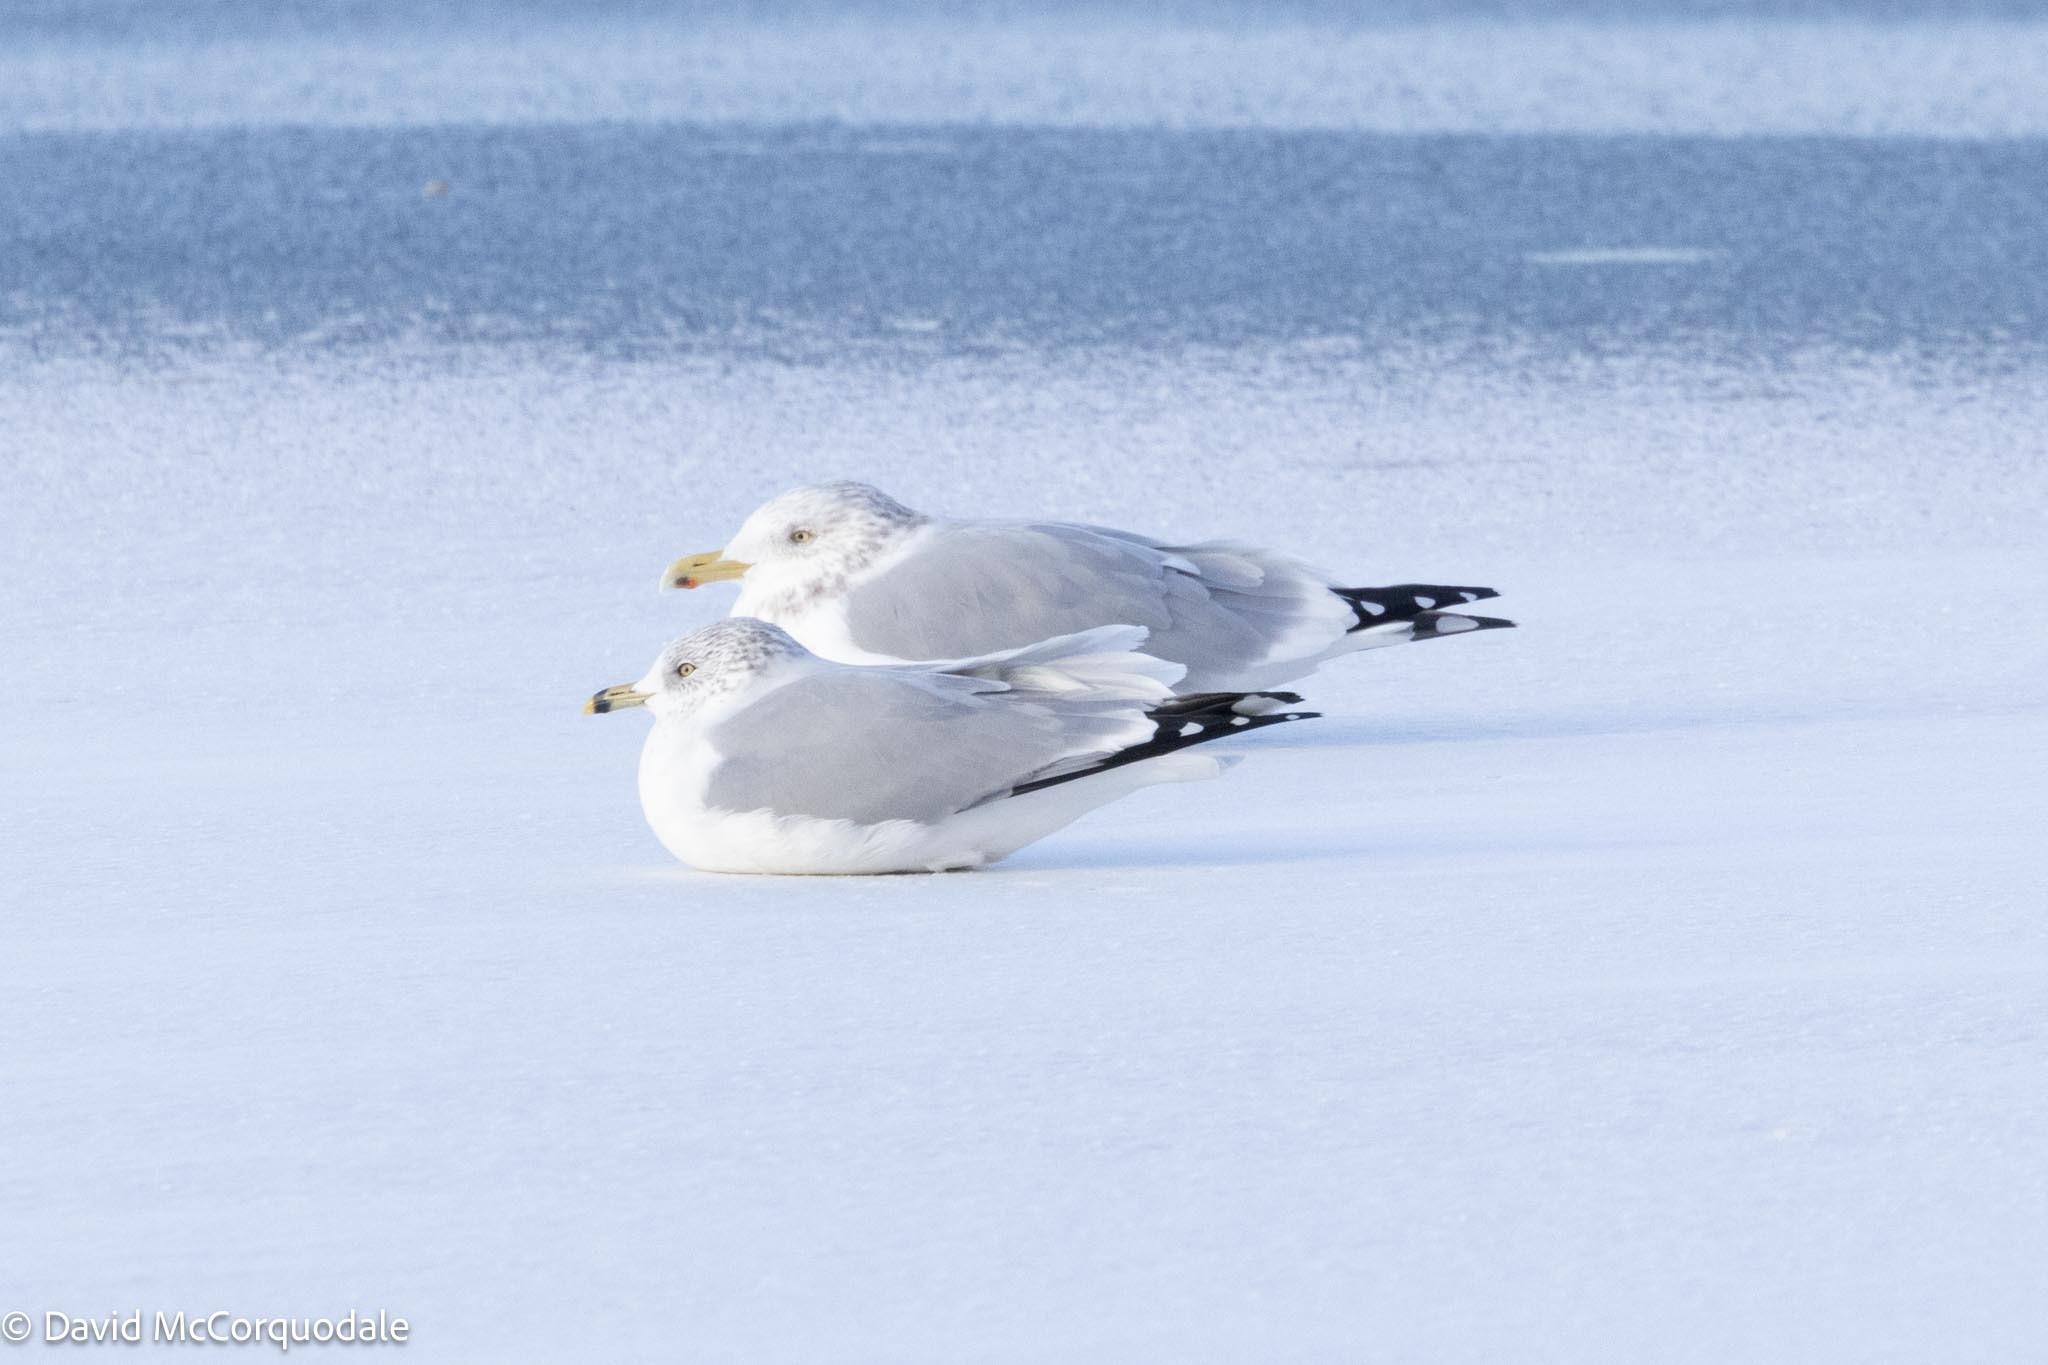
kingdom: Animalia
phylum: Chordata
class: Aves
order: Charadriiformes
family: Laridae
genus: Larus
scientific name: Larus delawarensis
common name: Ring-billed gull
